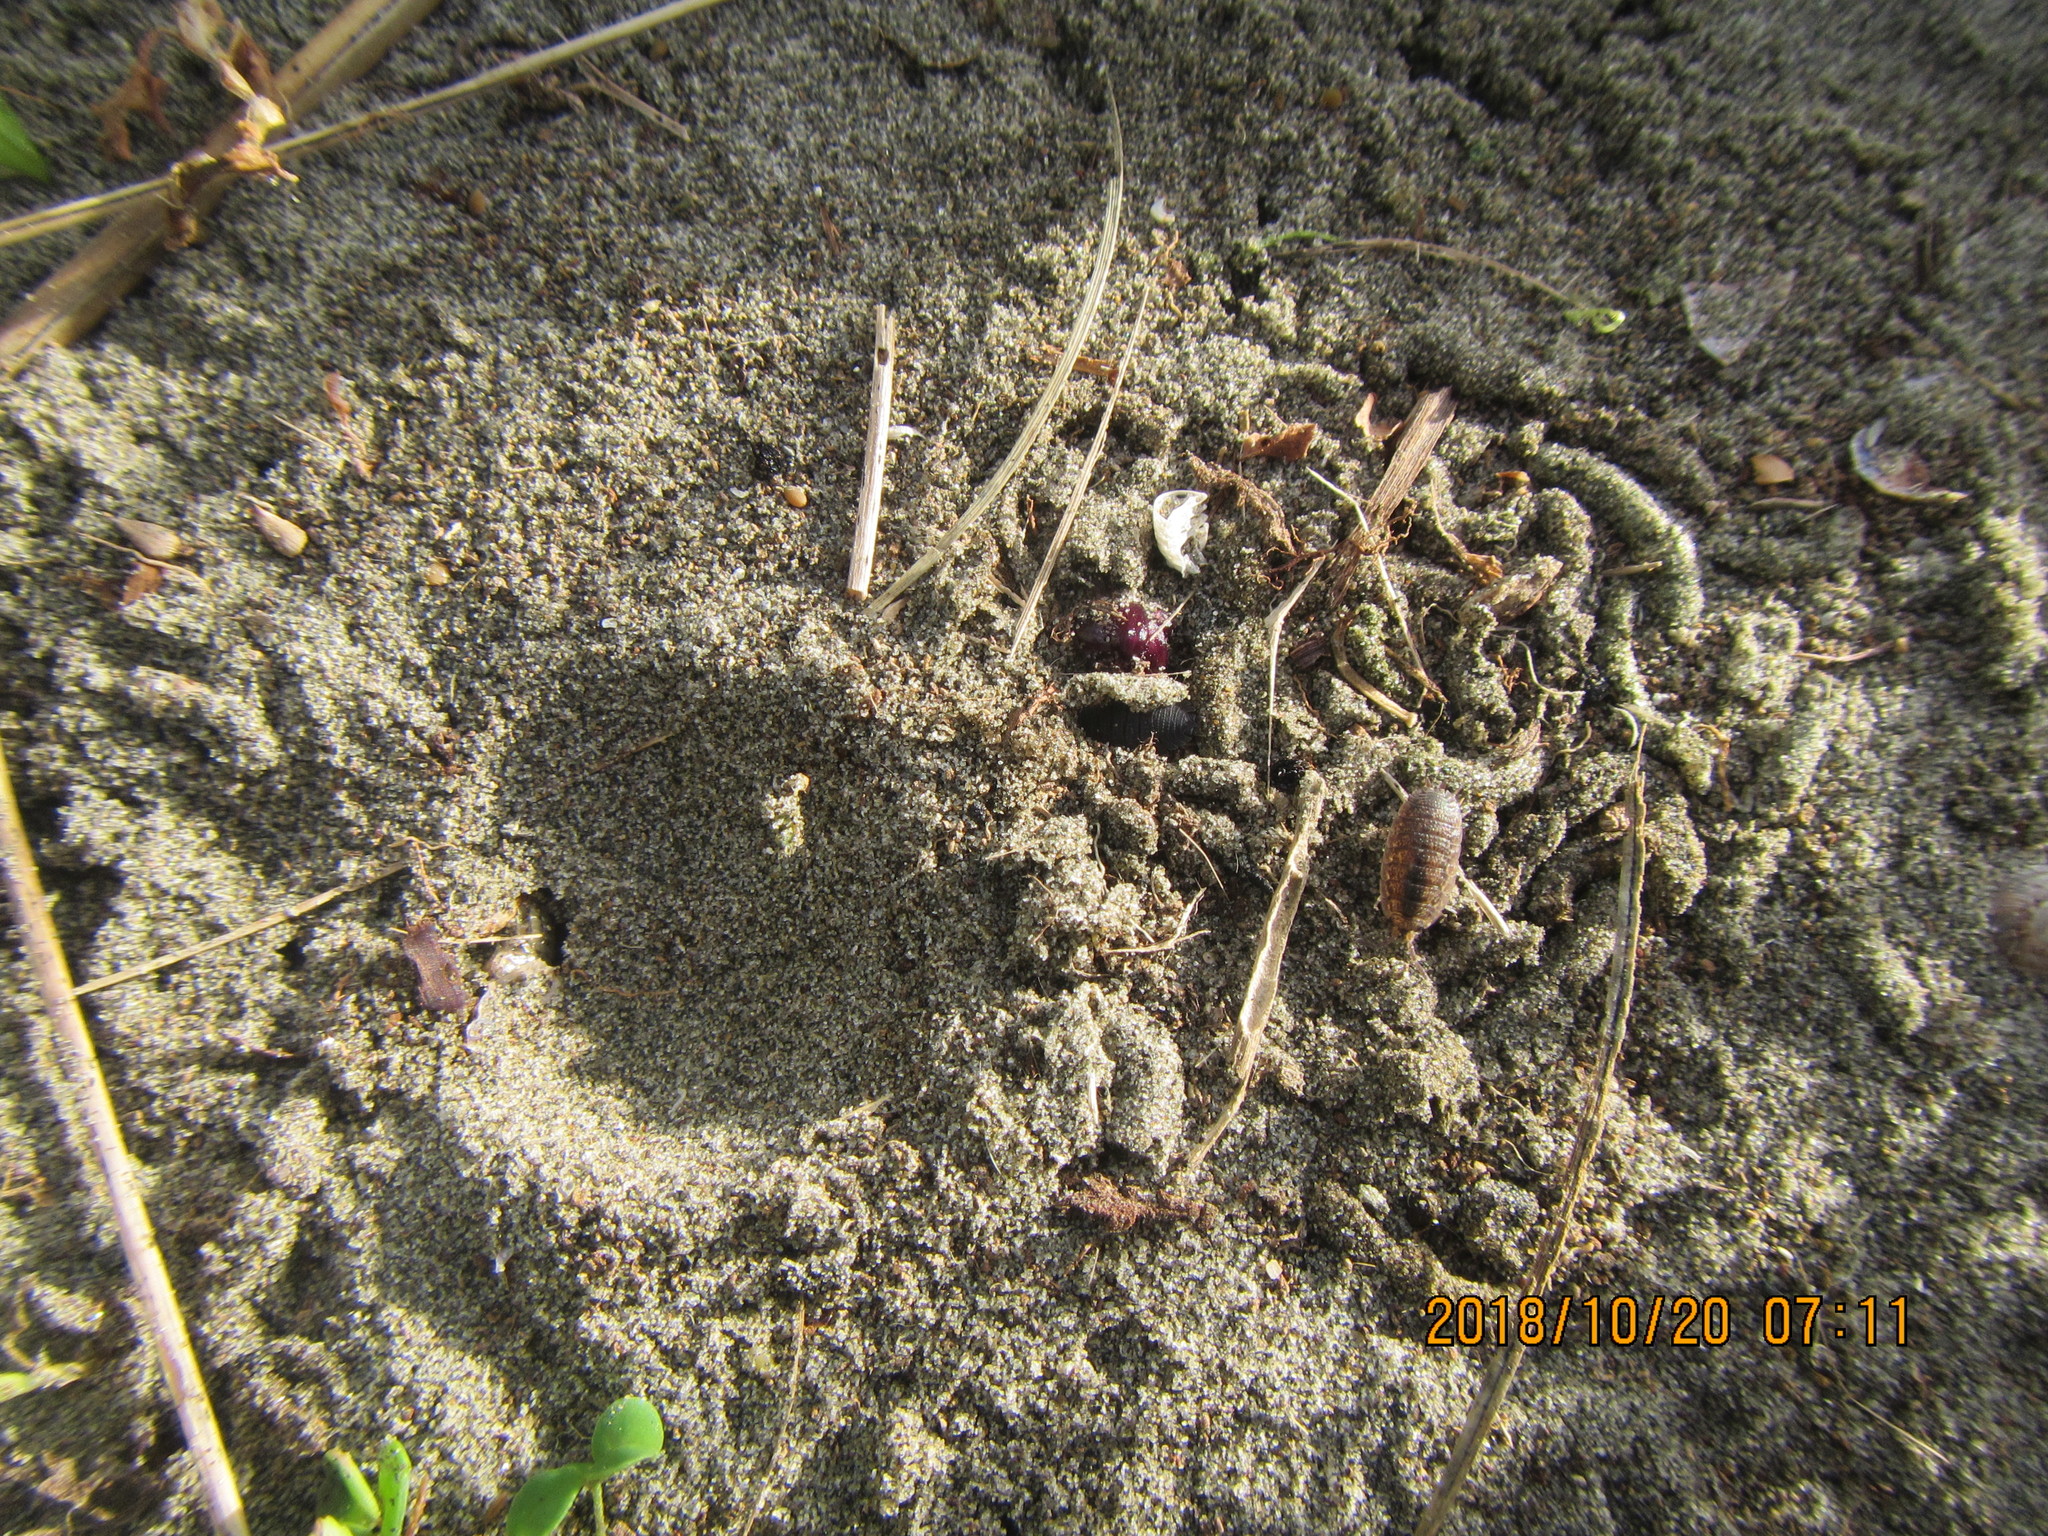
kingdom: Animalia
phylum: Mollusca
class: Gastropoda
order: Stylommatophora
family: Helicidae
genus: Cornu
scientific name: Cornu aspersum
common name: Brown garden snail
